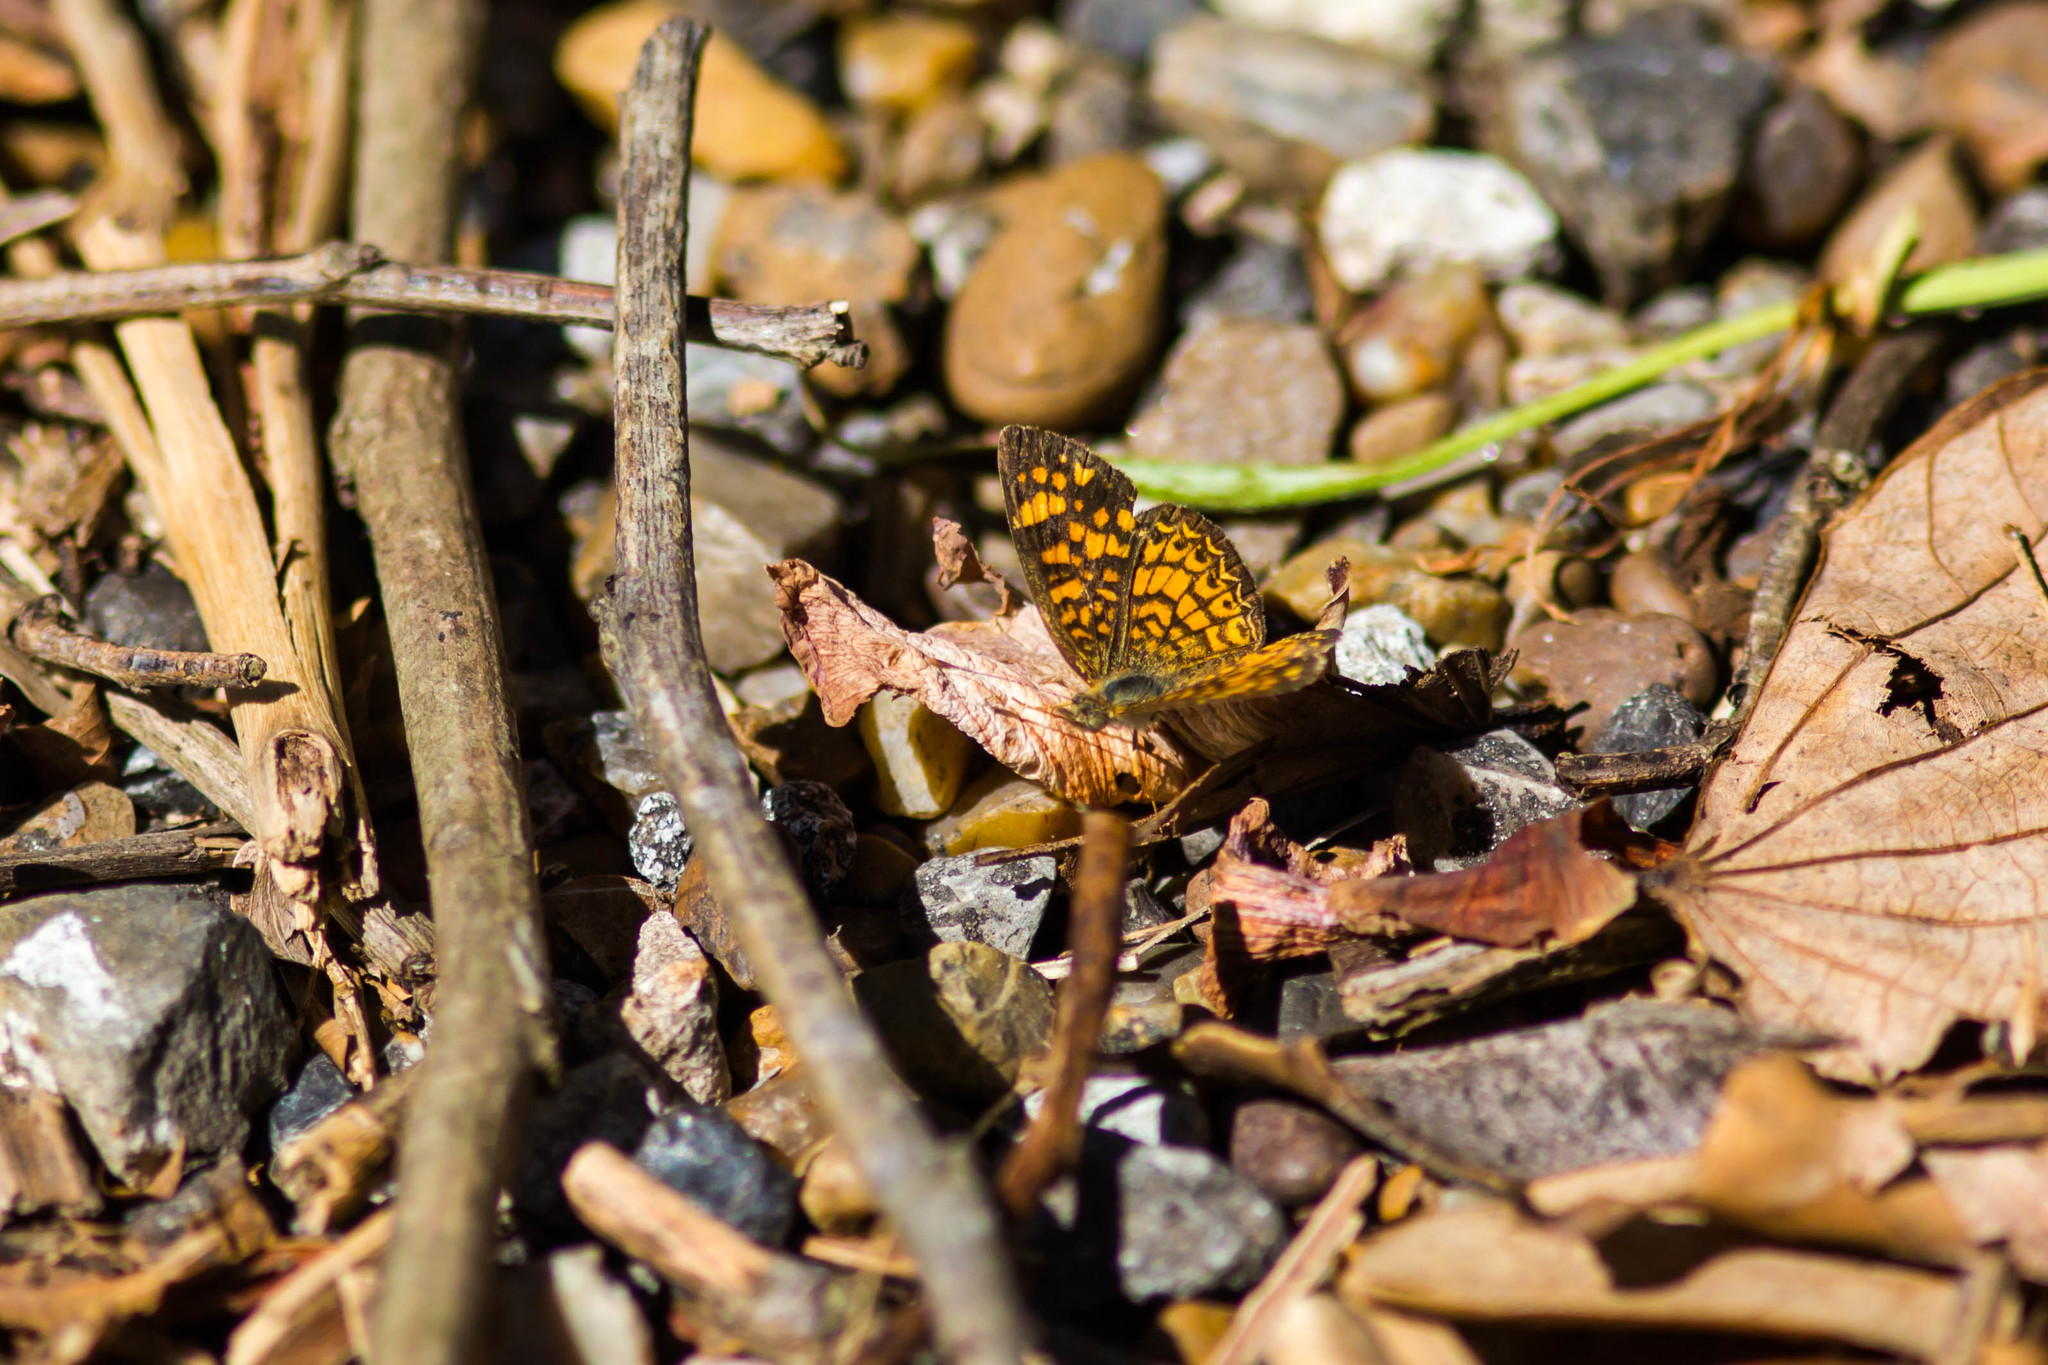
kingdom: Animalia
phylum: Arthropoda
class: Insecta
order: Lepidoptera
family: Nymphalidae
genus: Phyciodes
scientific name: Phyciodes tharos
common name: Pearl crescent
